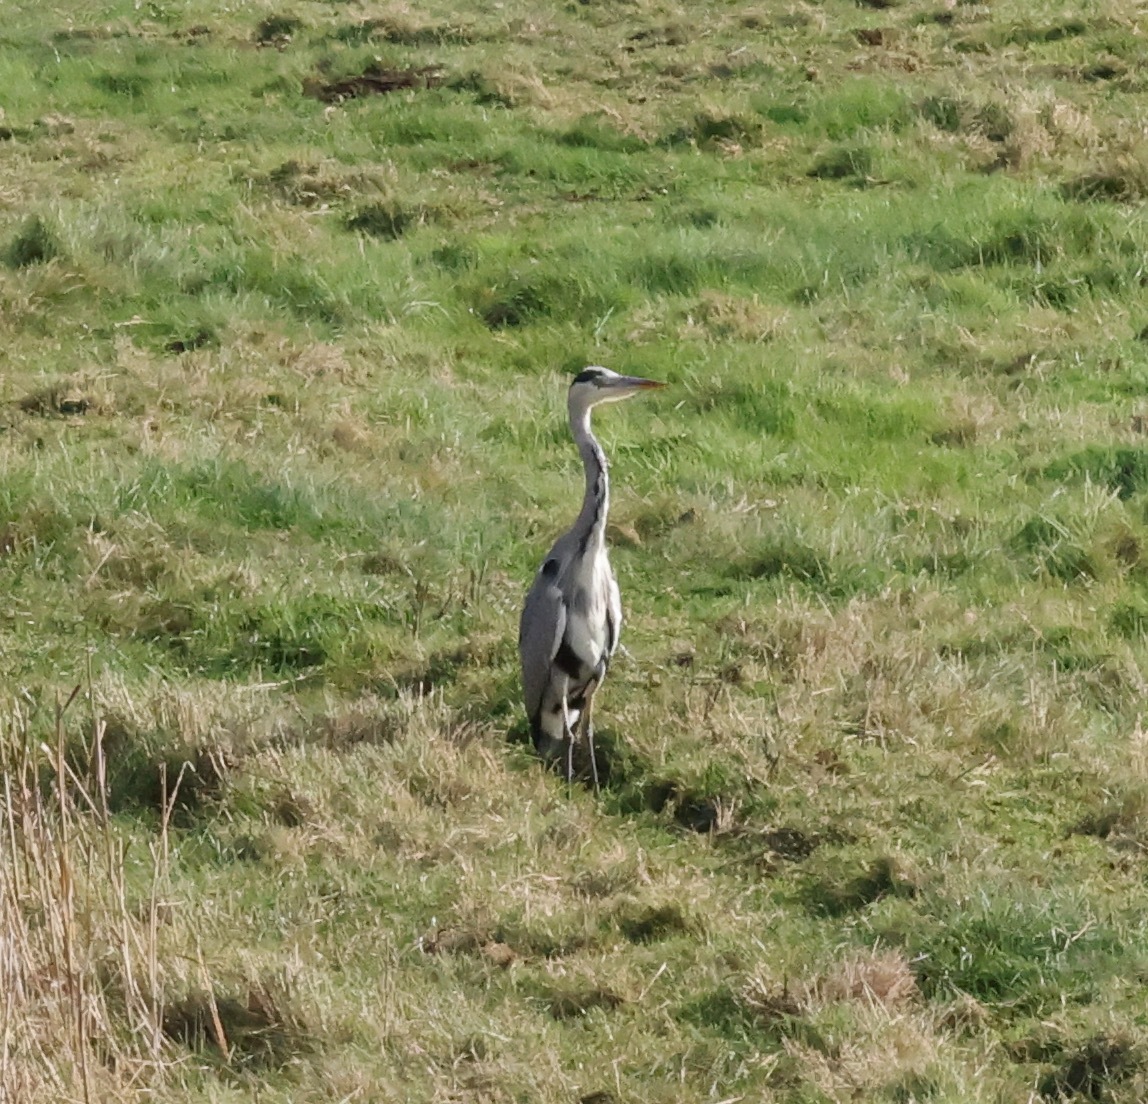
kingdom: Animalia
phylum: Chordata
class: Aves
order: Pelecaniformes
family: Ardeidae
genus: Ardea
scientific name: Ardea cinerea
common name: Grey heron
